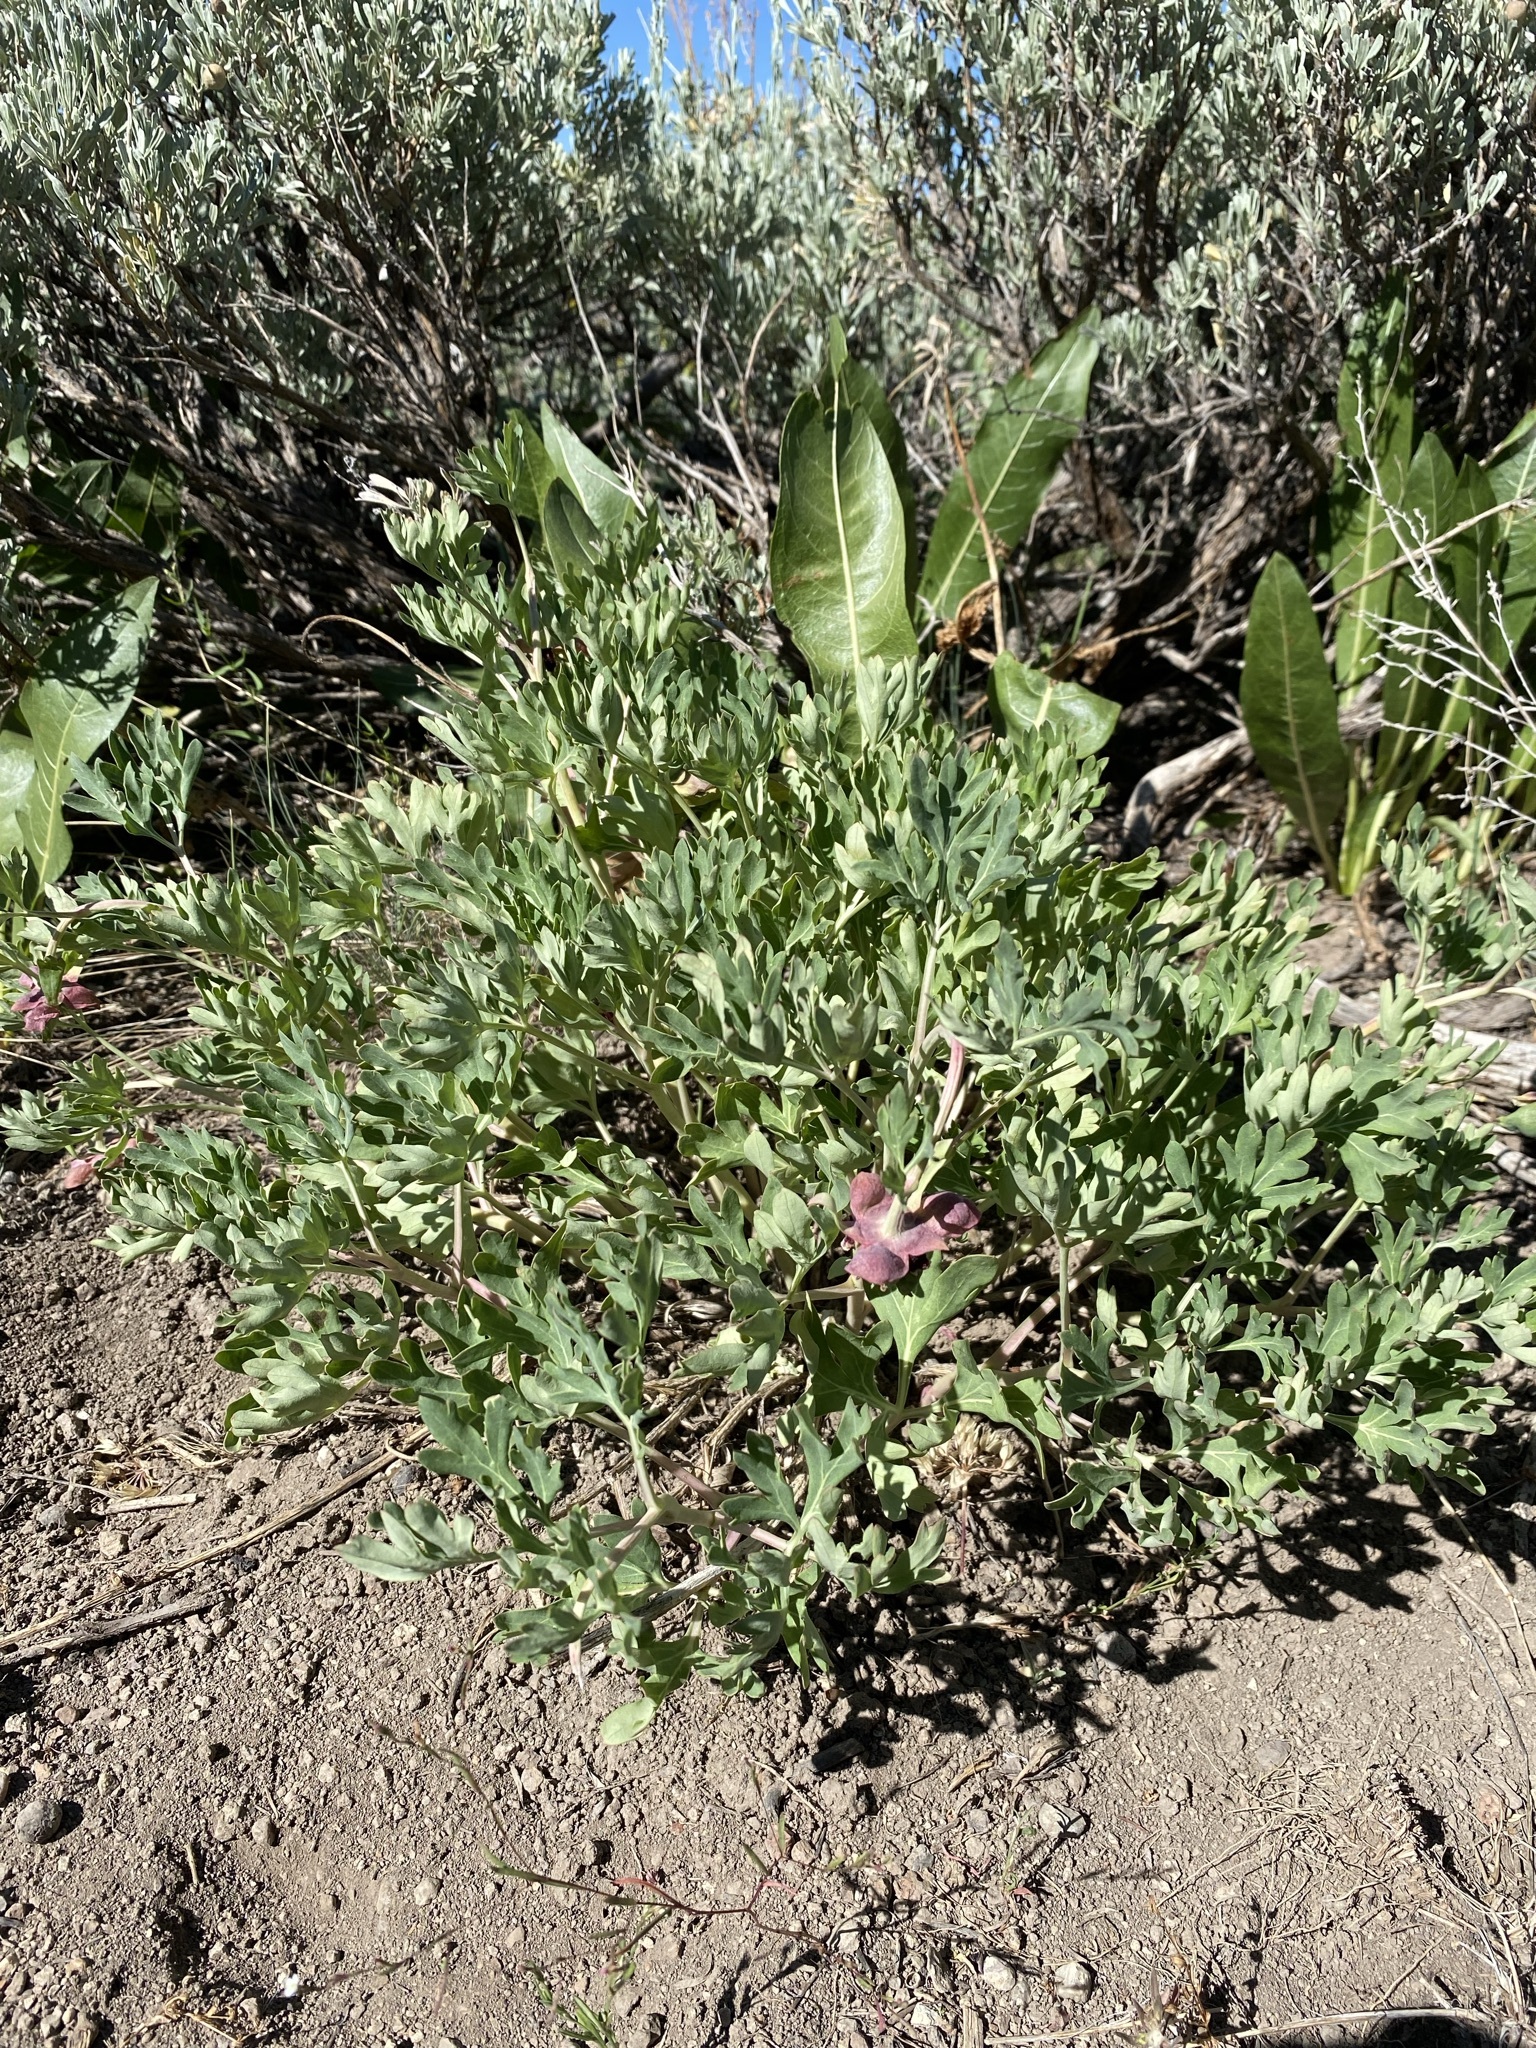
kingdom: Plantae
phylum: Tracheophyta
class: Magnoliopsida
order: Saxifragales
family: Paeoniaceae
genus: Paeonia
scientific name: Paeonia brownii
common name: Brown's peony
